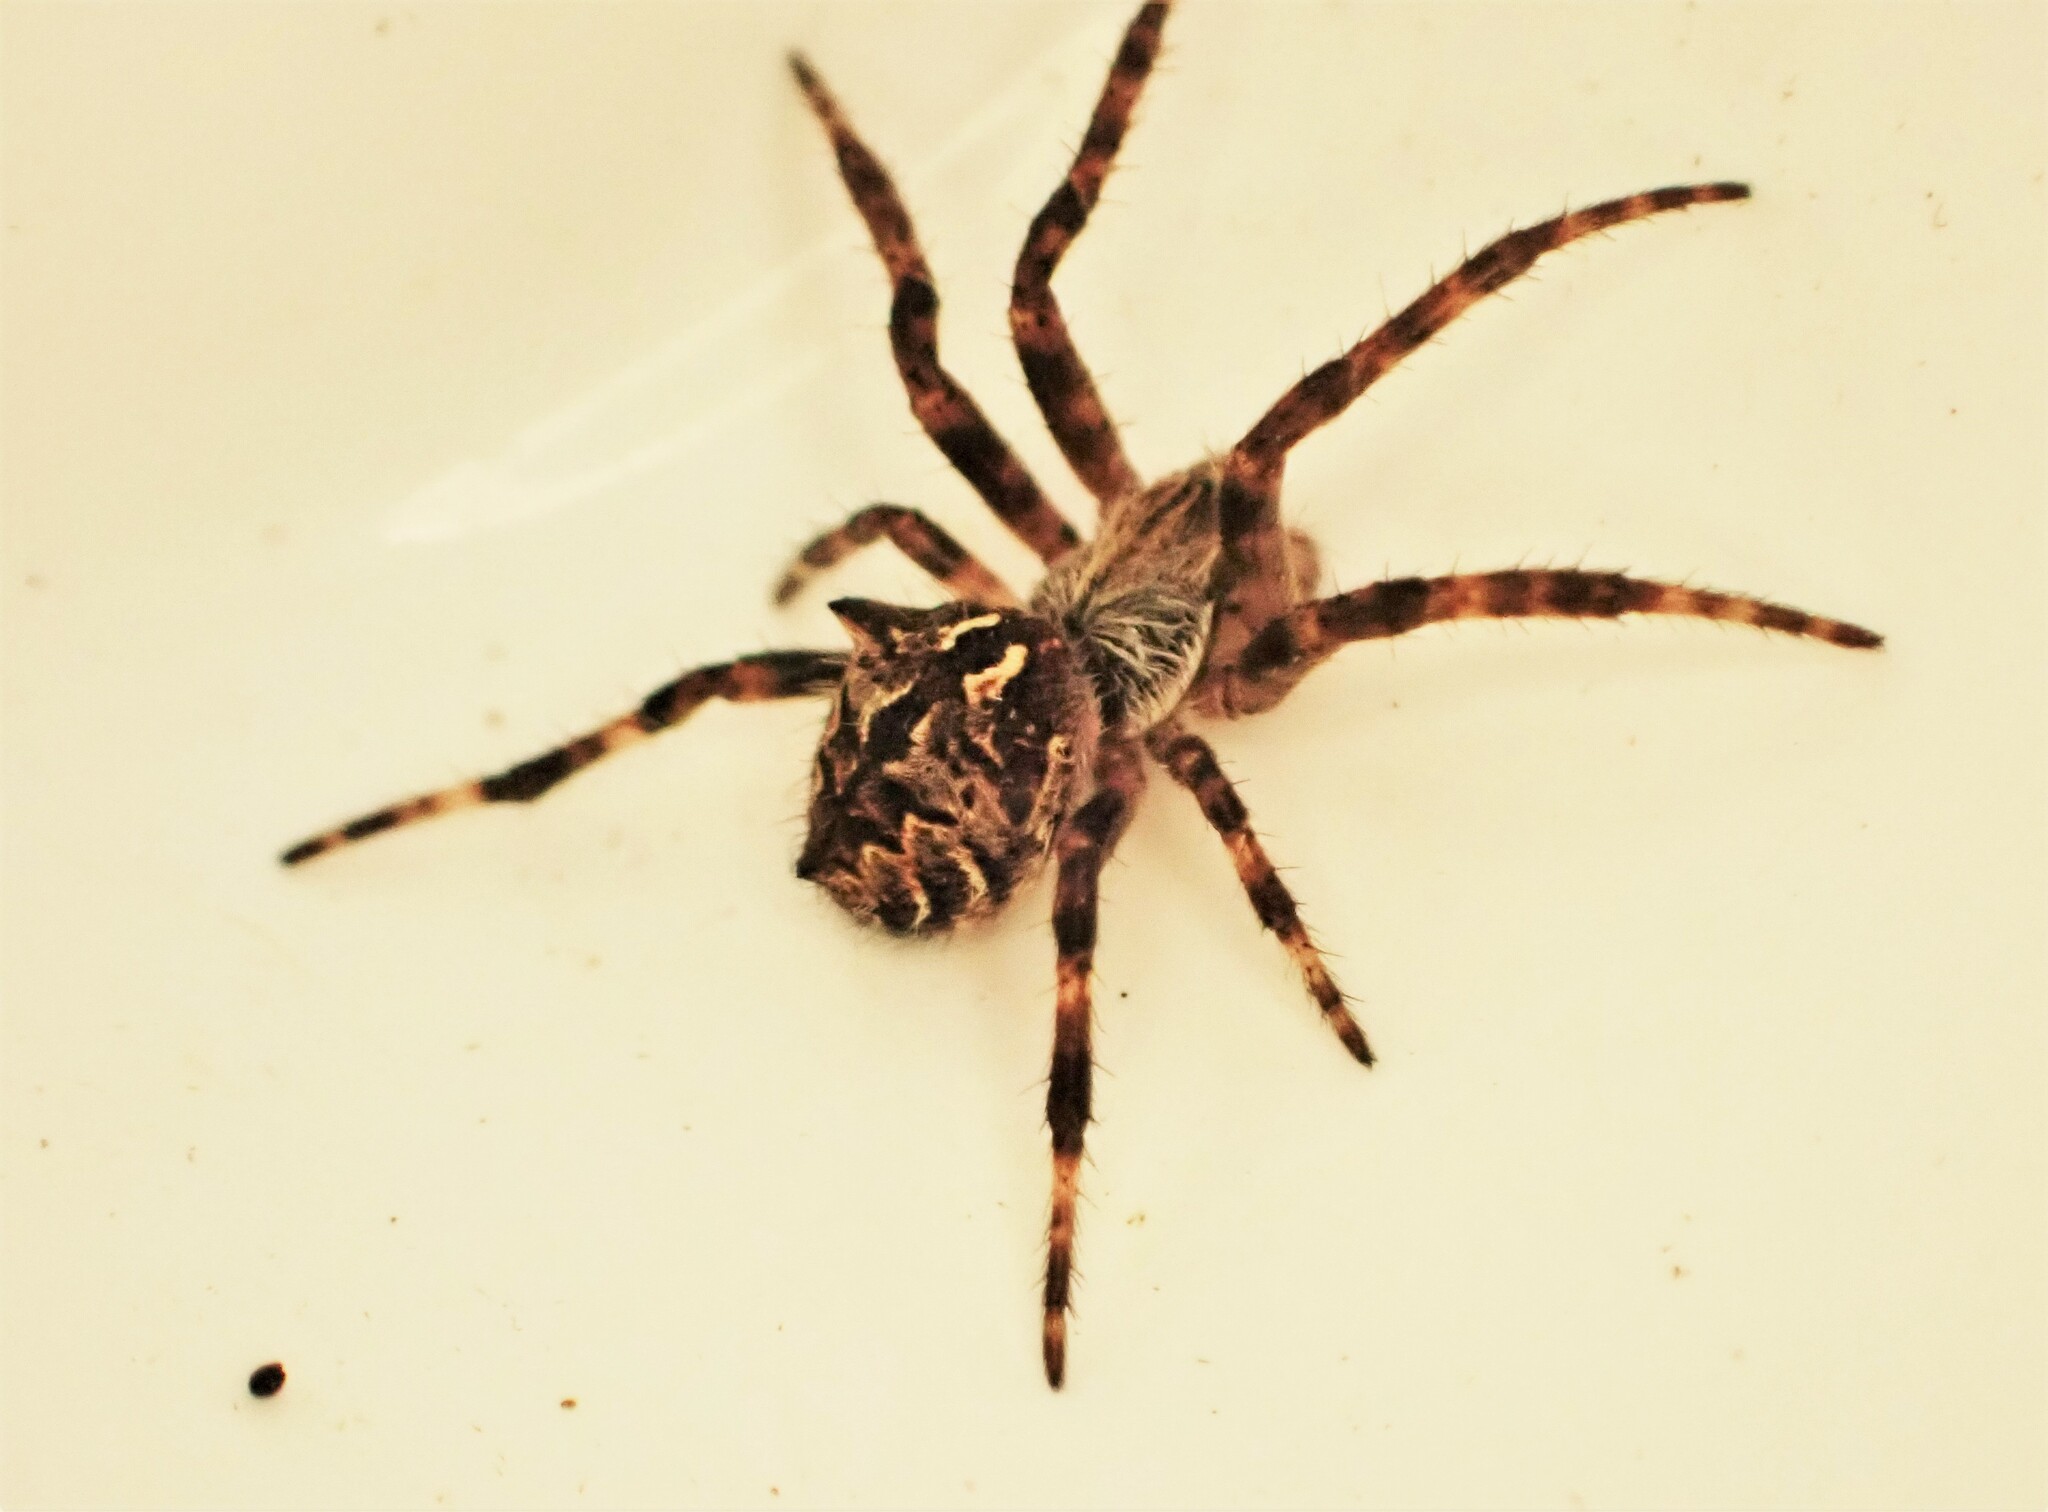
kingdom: Animalia
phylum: Arthropoda
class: Arachnida
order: Araneae
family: Araneidae
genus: Backobourkia
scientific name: Backobourkia brouni
